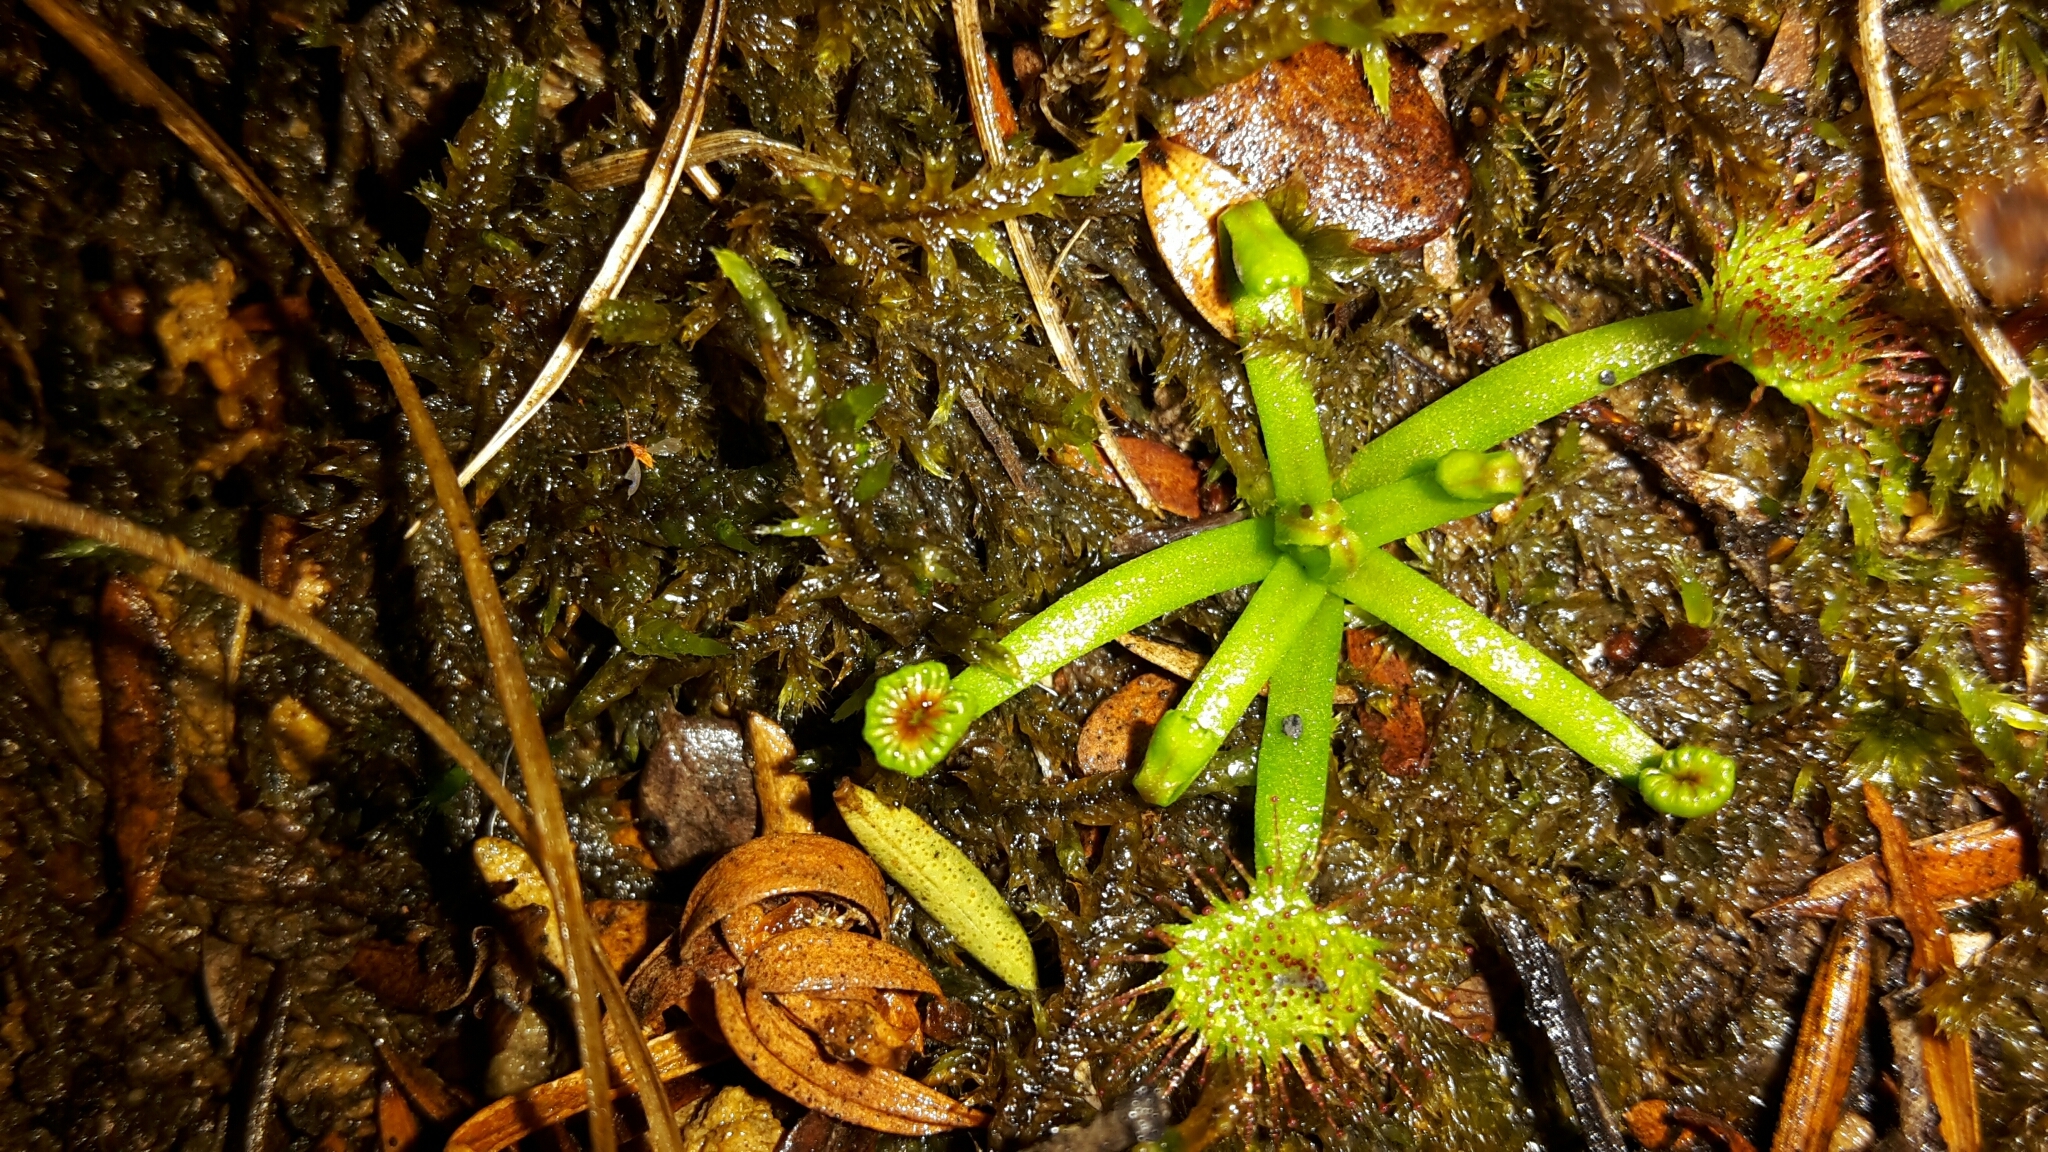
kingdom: Plantae
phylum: Tracheophyta
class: Magnoliopsida
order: Caryophyllales
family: Droseraceae
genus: Drosera
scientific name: Drosera peltata
